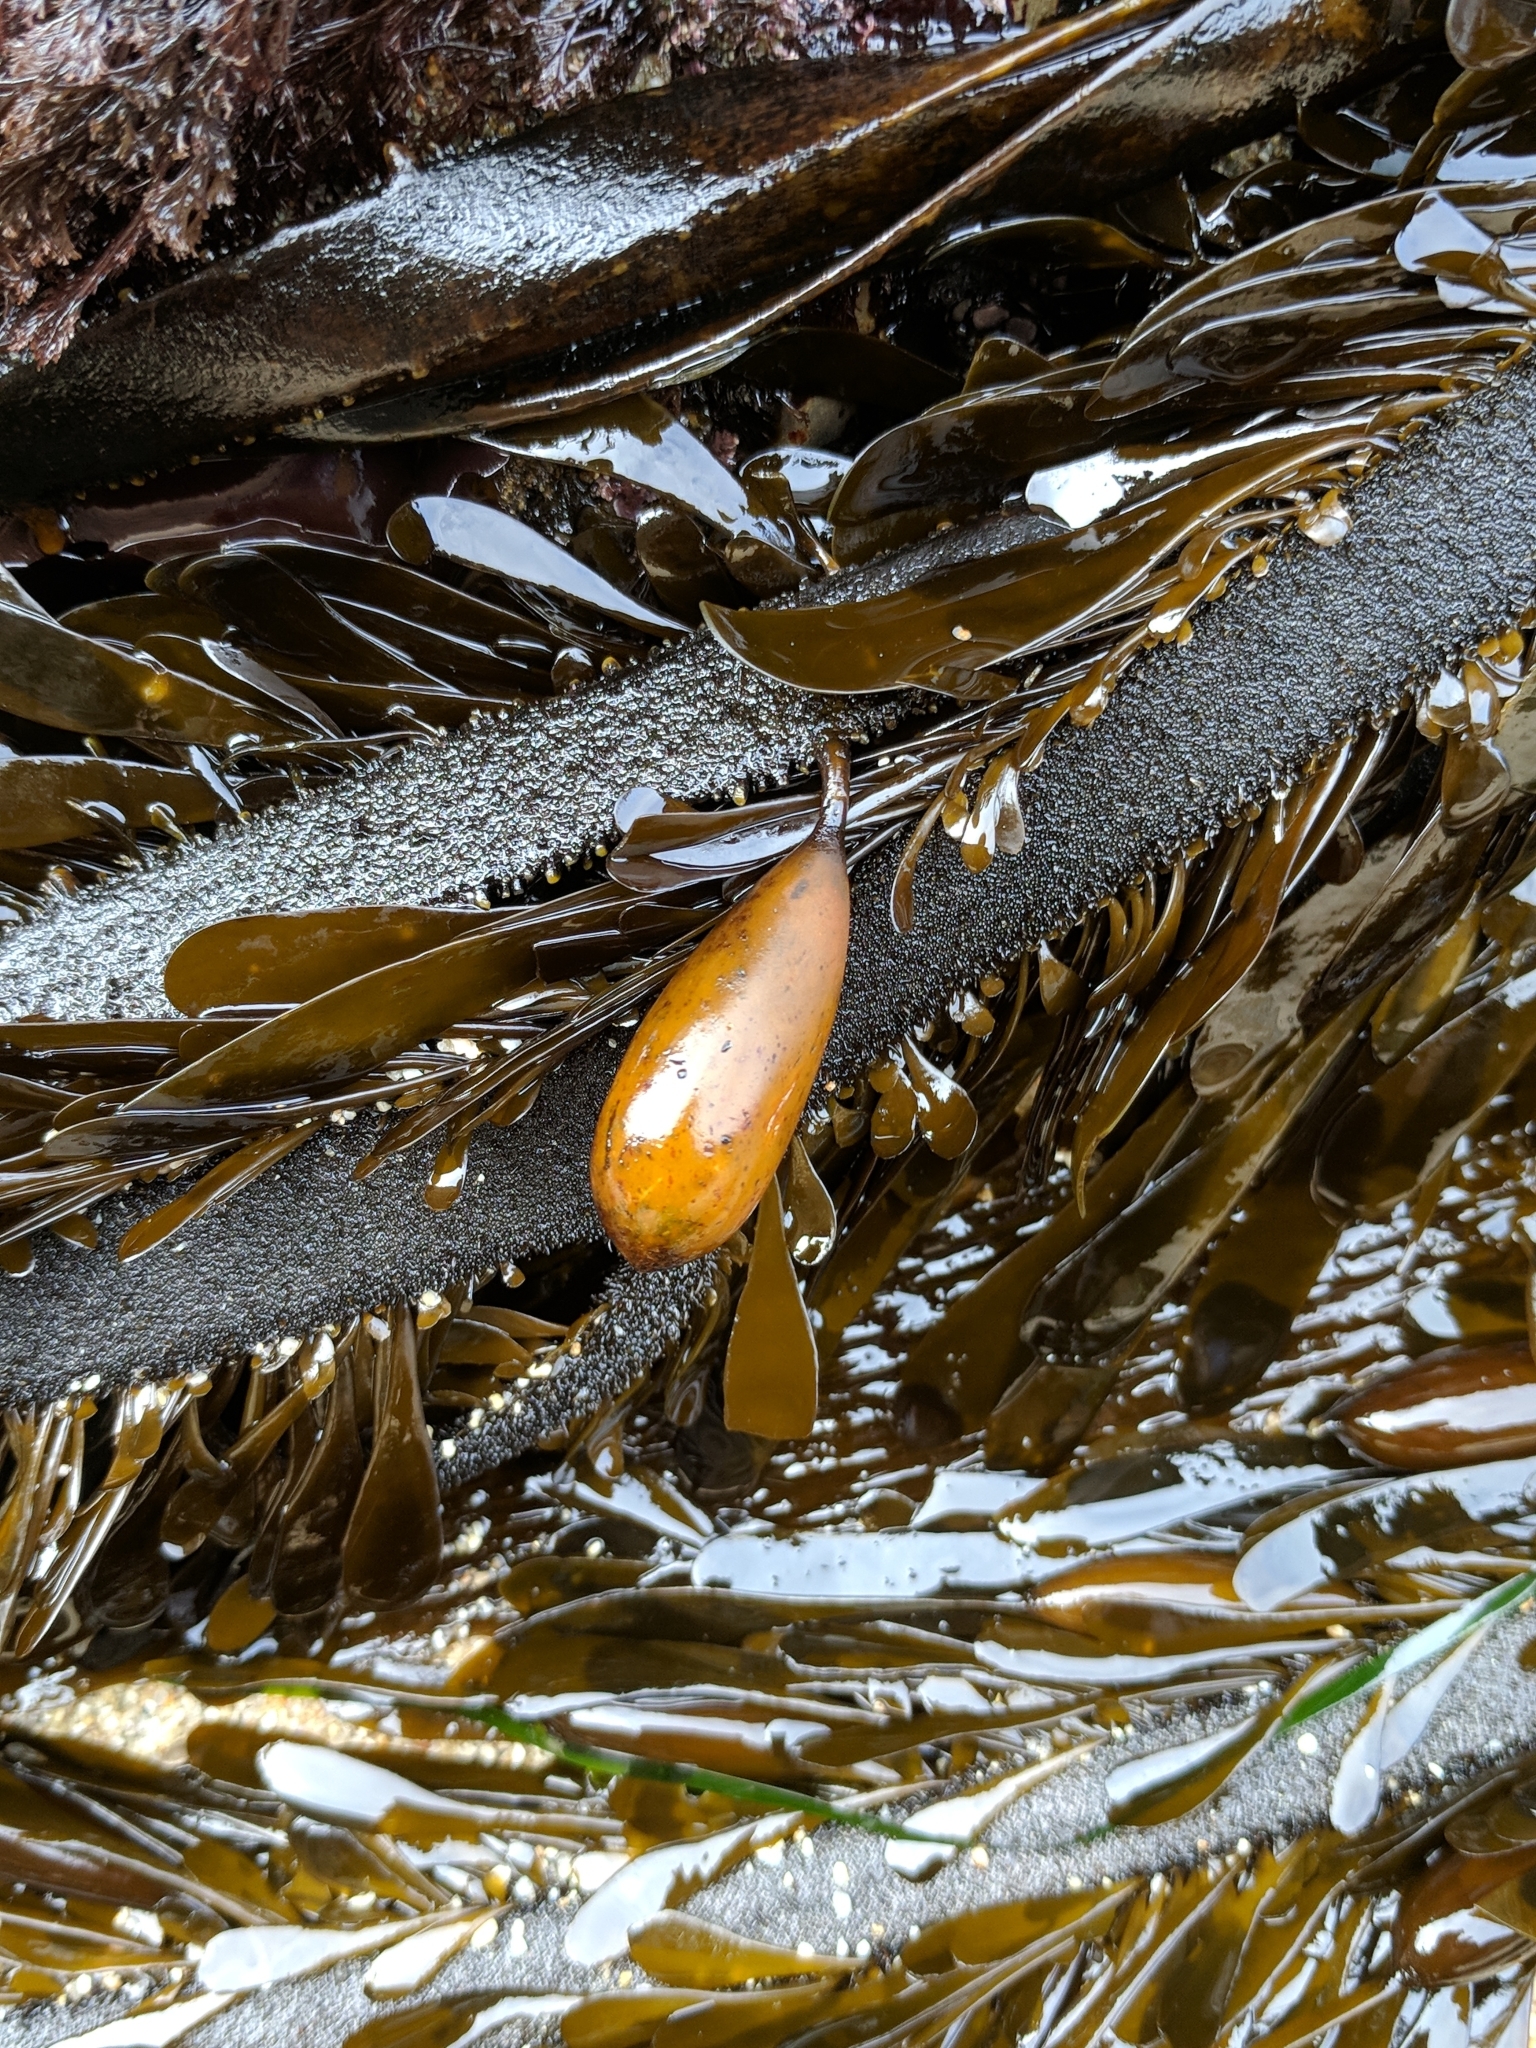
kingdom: Chromista
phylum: Ochrophyta
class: Phaeophyceae
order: Laminariales
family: Lessoniaceae
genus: Egregia
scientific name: Egregia menziesii
